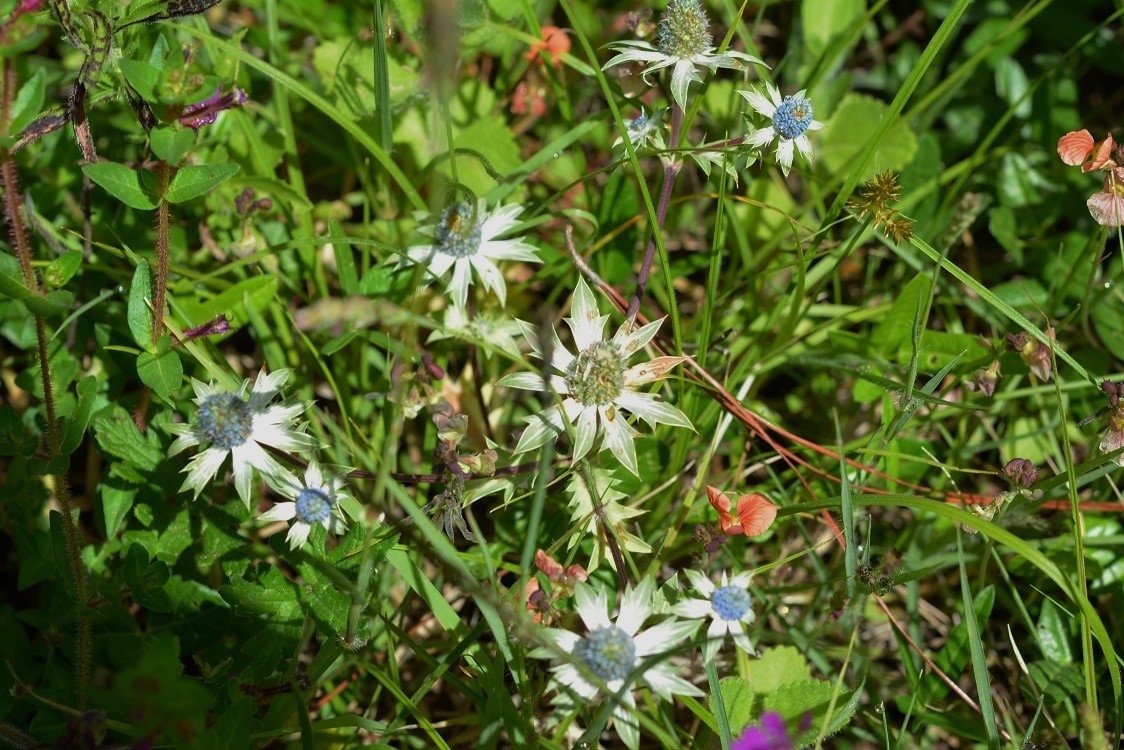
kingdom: Plantae
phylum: Tracheophyta
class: Magnoliopsida
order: Apiales
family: Apiaceae
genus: Eryngium
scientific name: Eryngium carlinae
